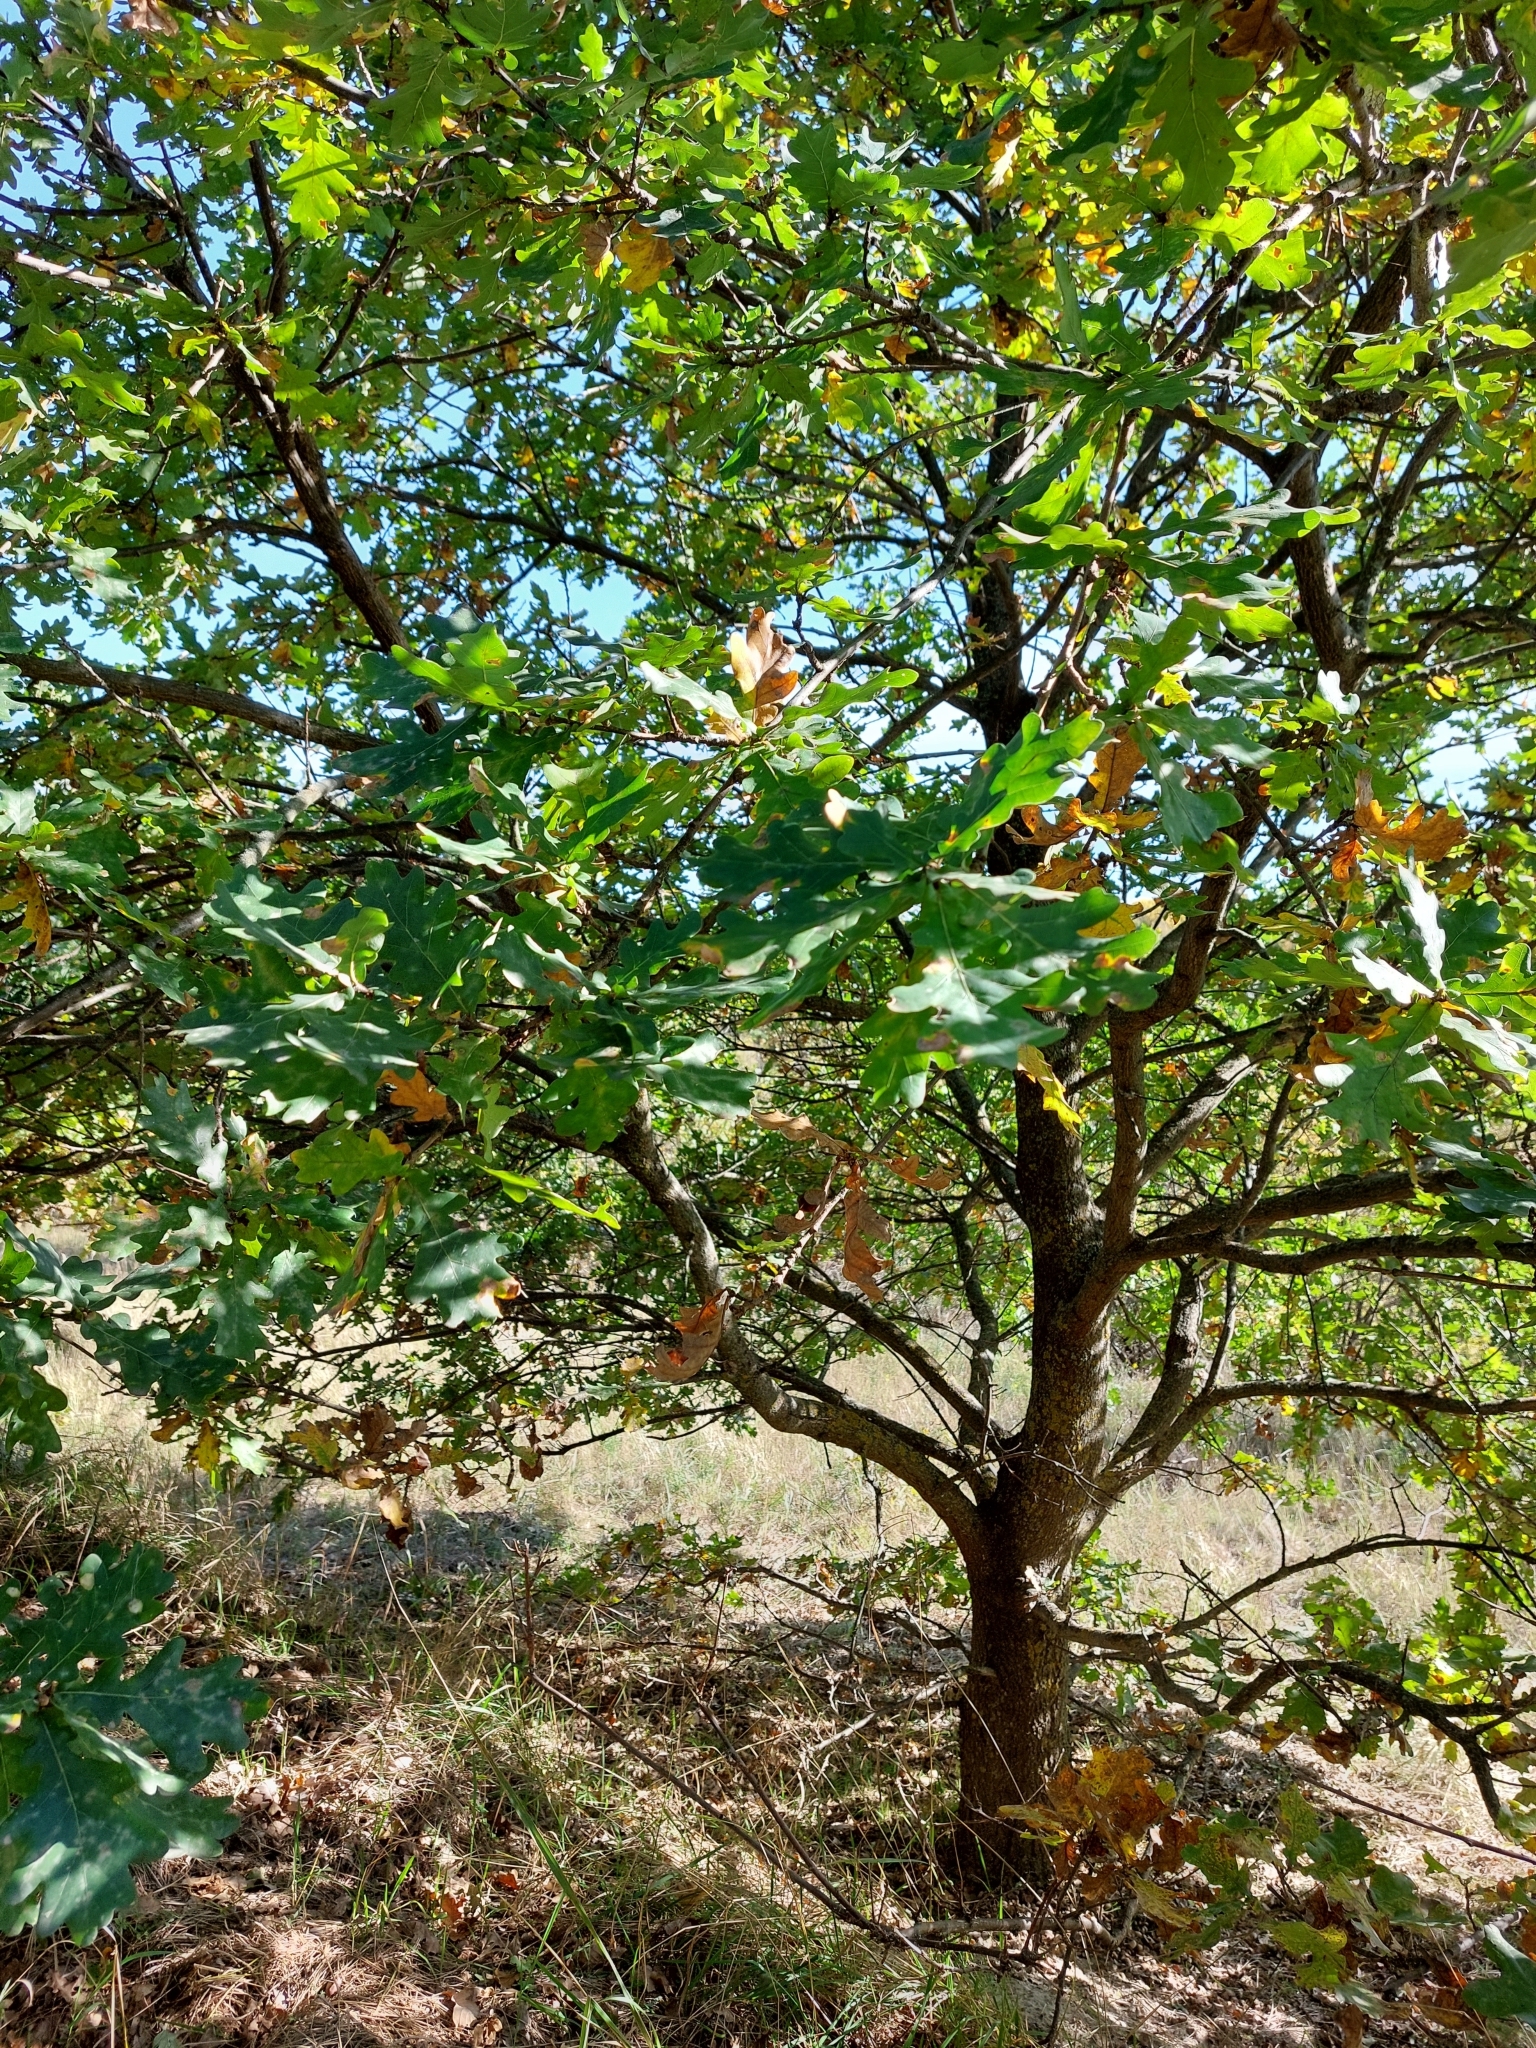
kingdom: Plantae
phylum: Tracheophyta
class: Magnoliopsida
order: Fagales
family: Fagaceae
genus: Quercus
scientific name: Quercus robur
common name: Pedunculate oak
